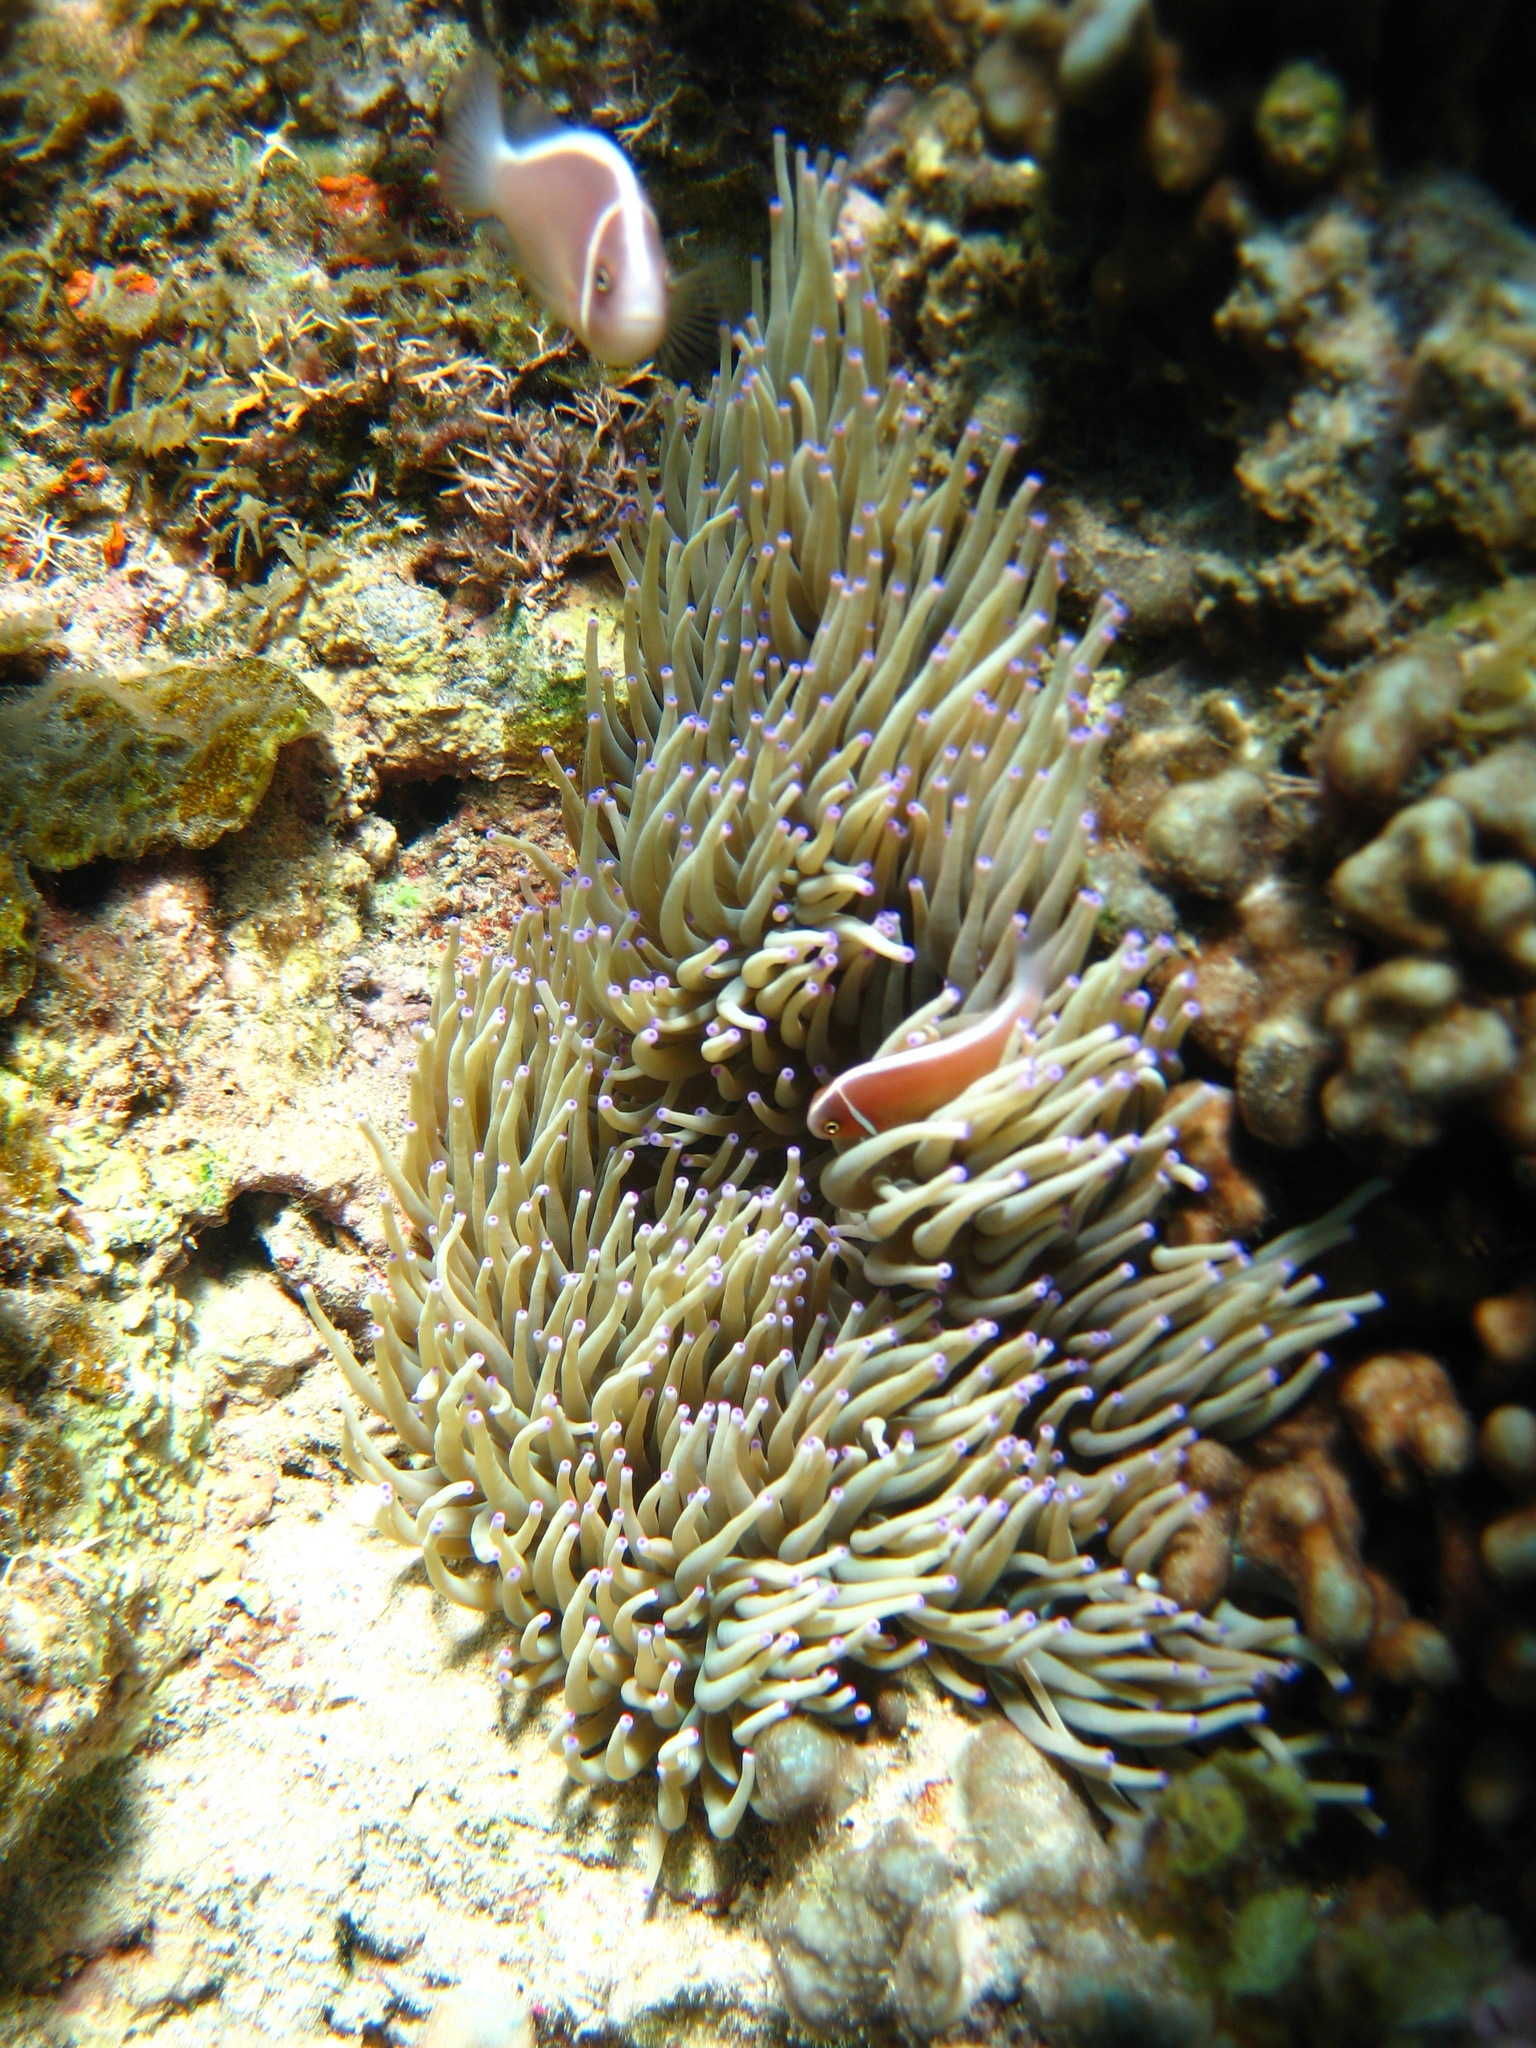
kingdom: Animalia
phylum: Chordata
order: Perciformes
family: Pomacentridae
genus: Amphiprion
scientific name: Amphiprion perideraion
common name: Pink anemonefish
